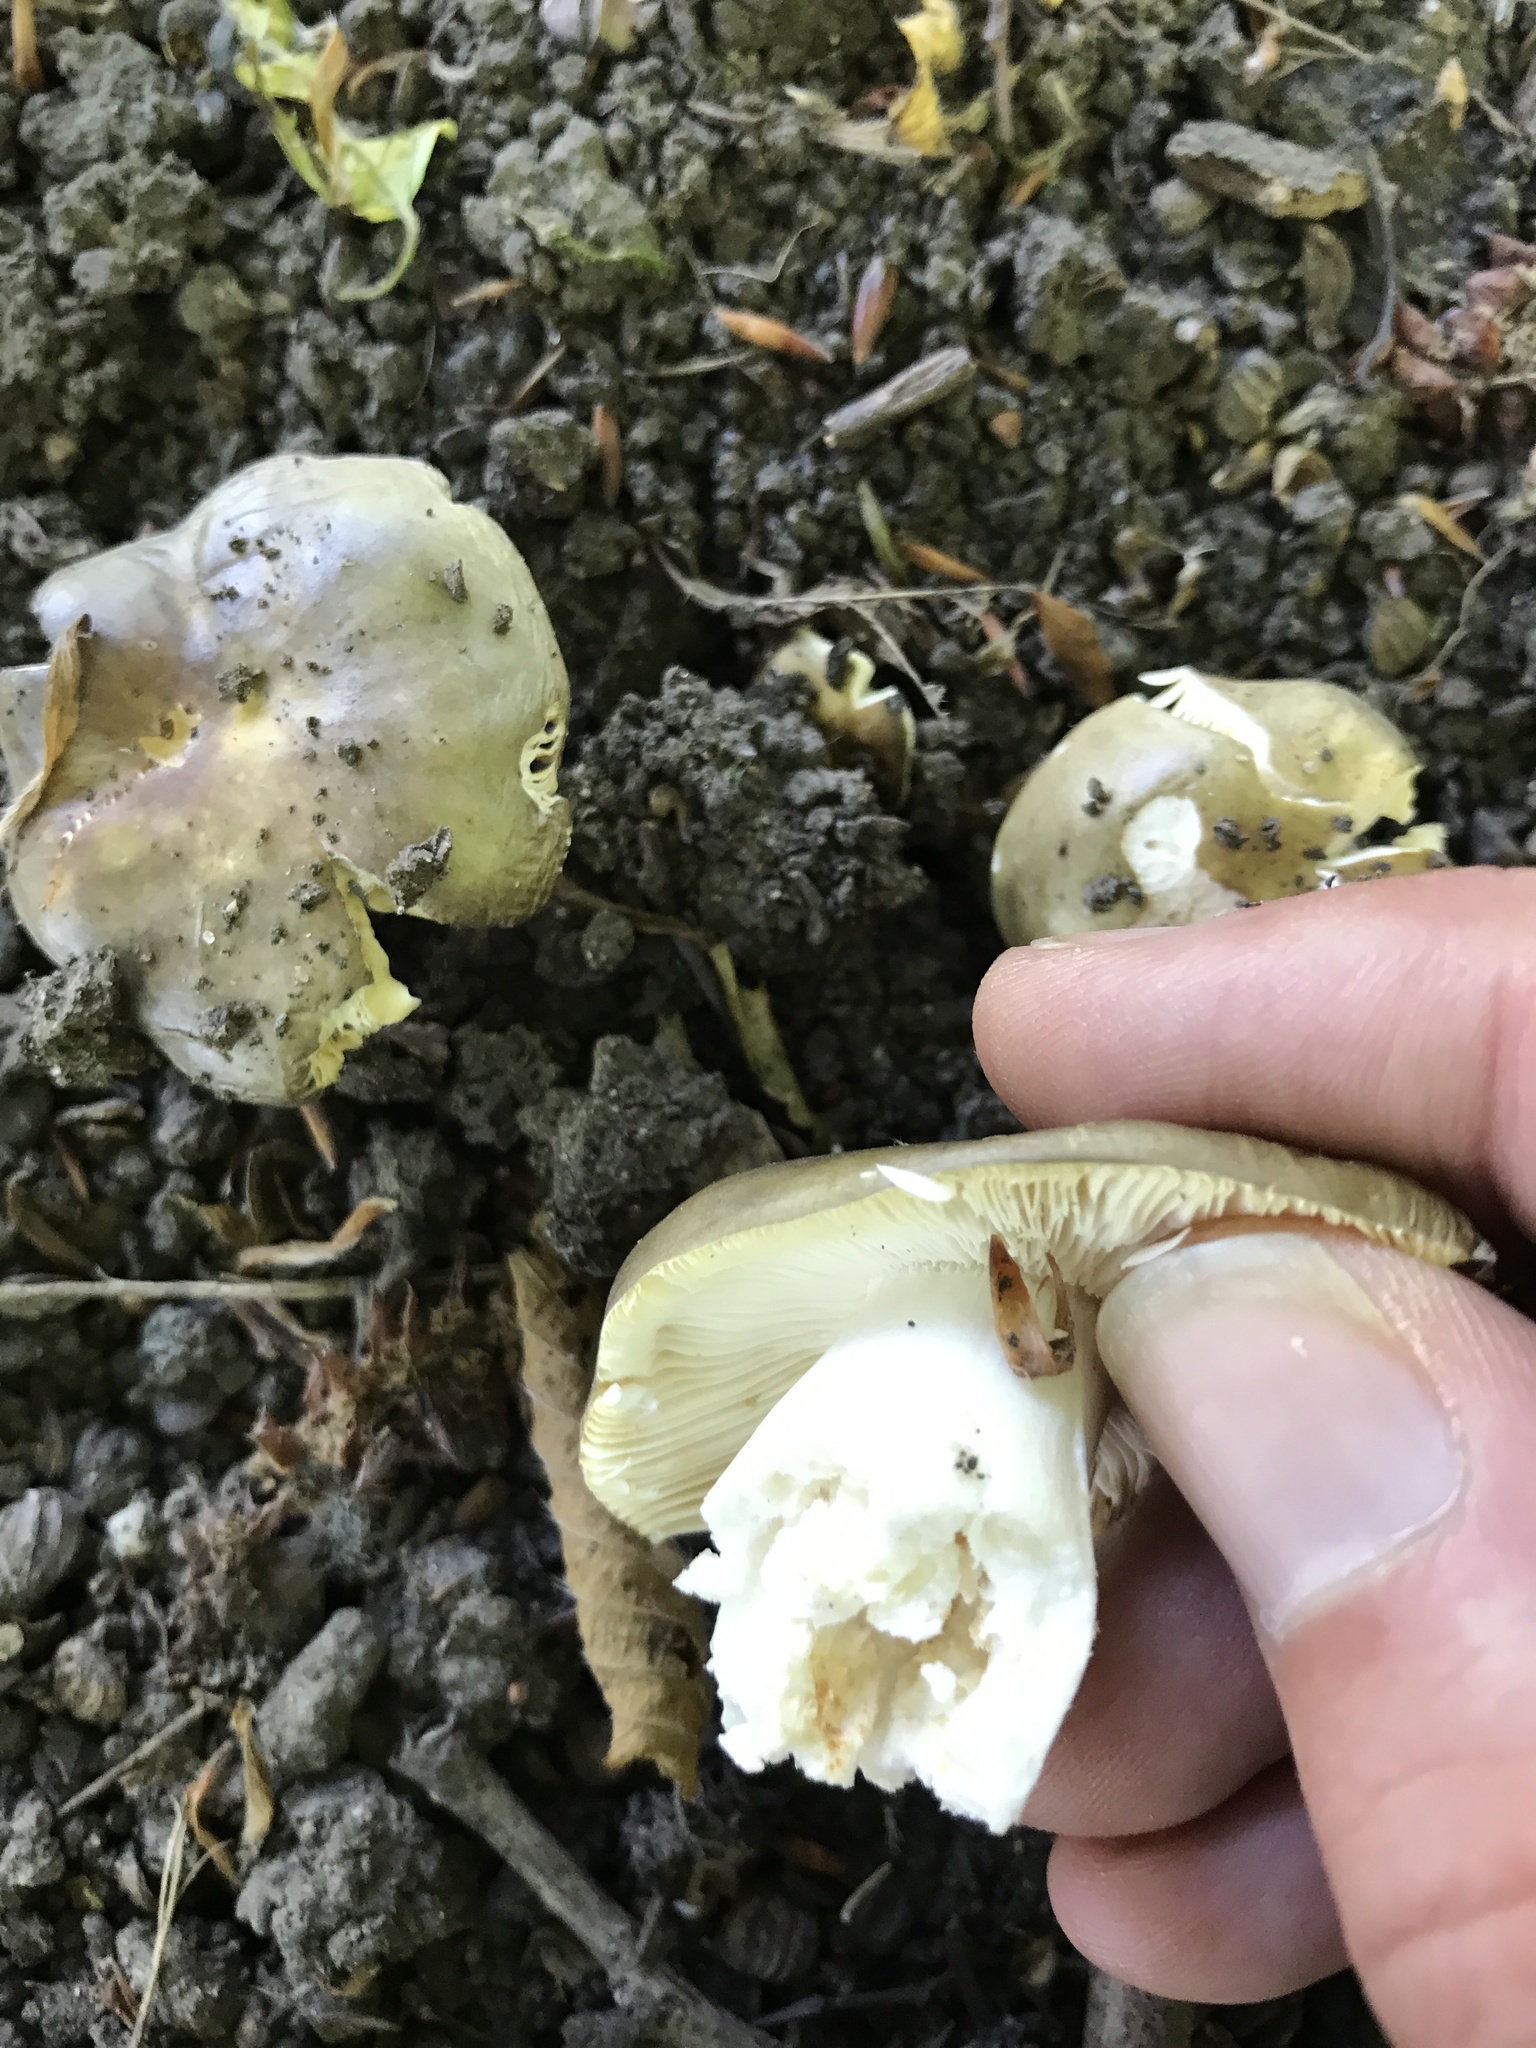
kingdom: Fungi
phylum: Basidiomycota
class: Agaricomycetes
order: Russulales
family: Russulaceae
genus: Russula
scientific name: Russula heterophylla
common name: Greasy green brittlegill
